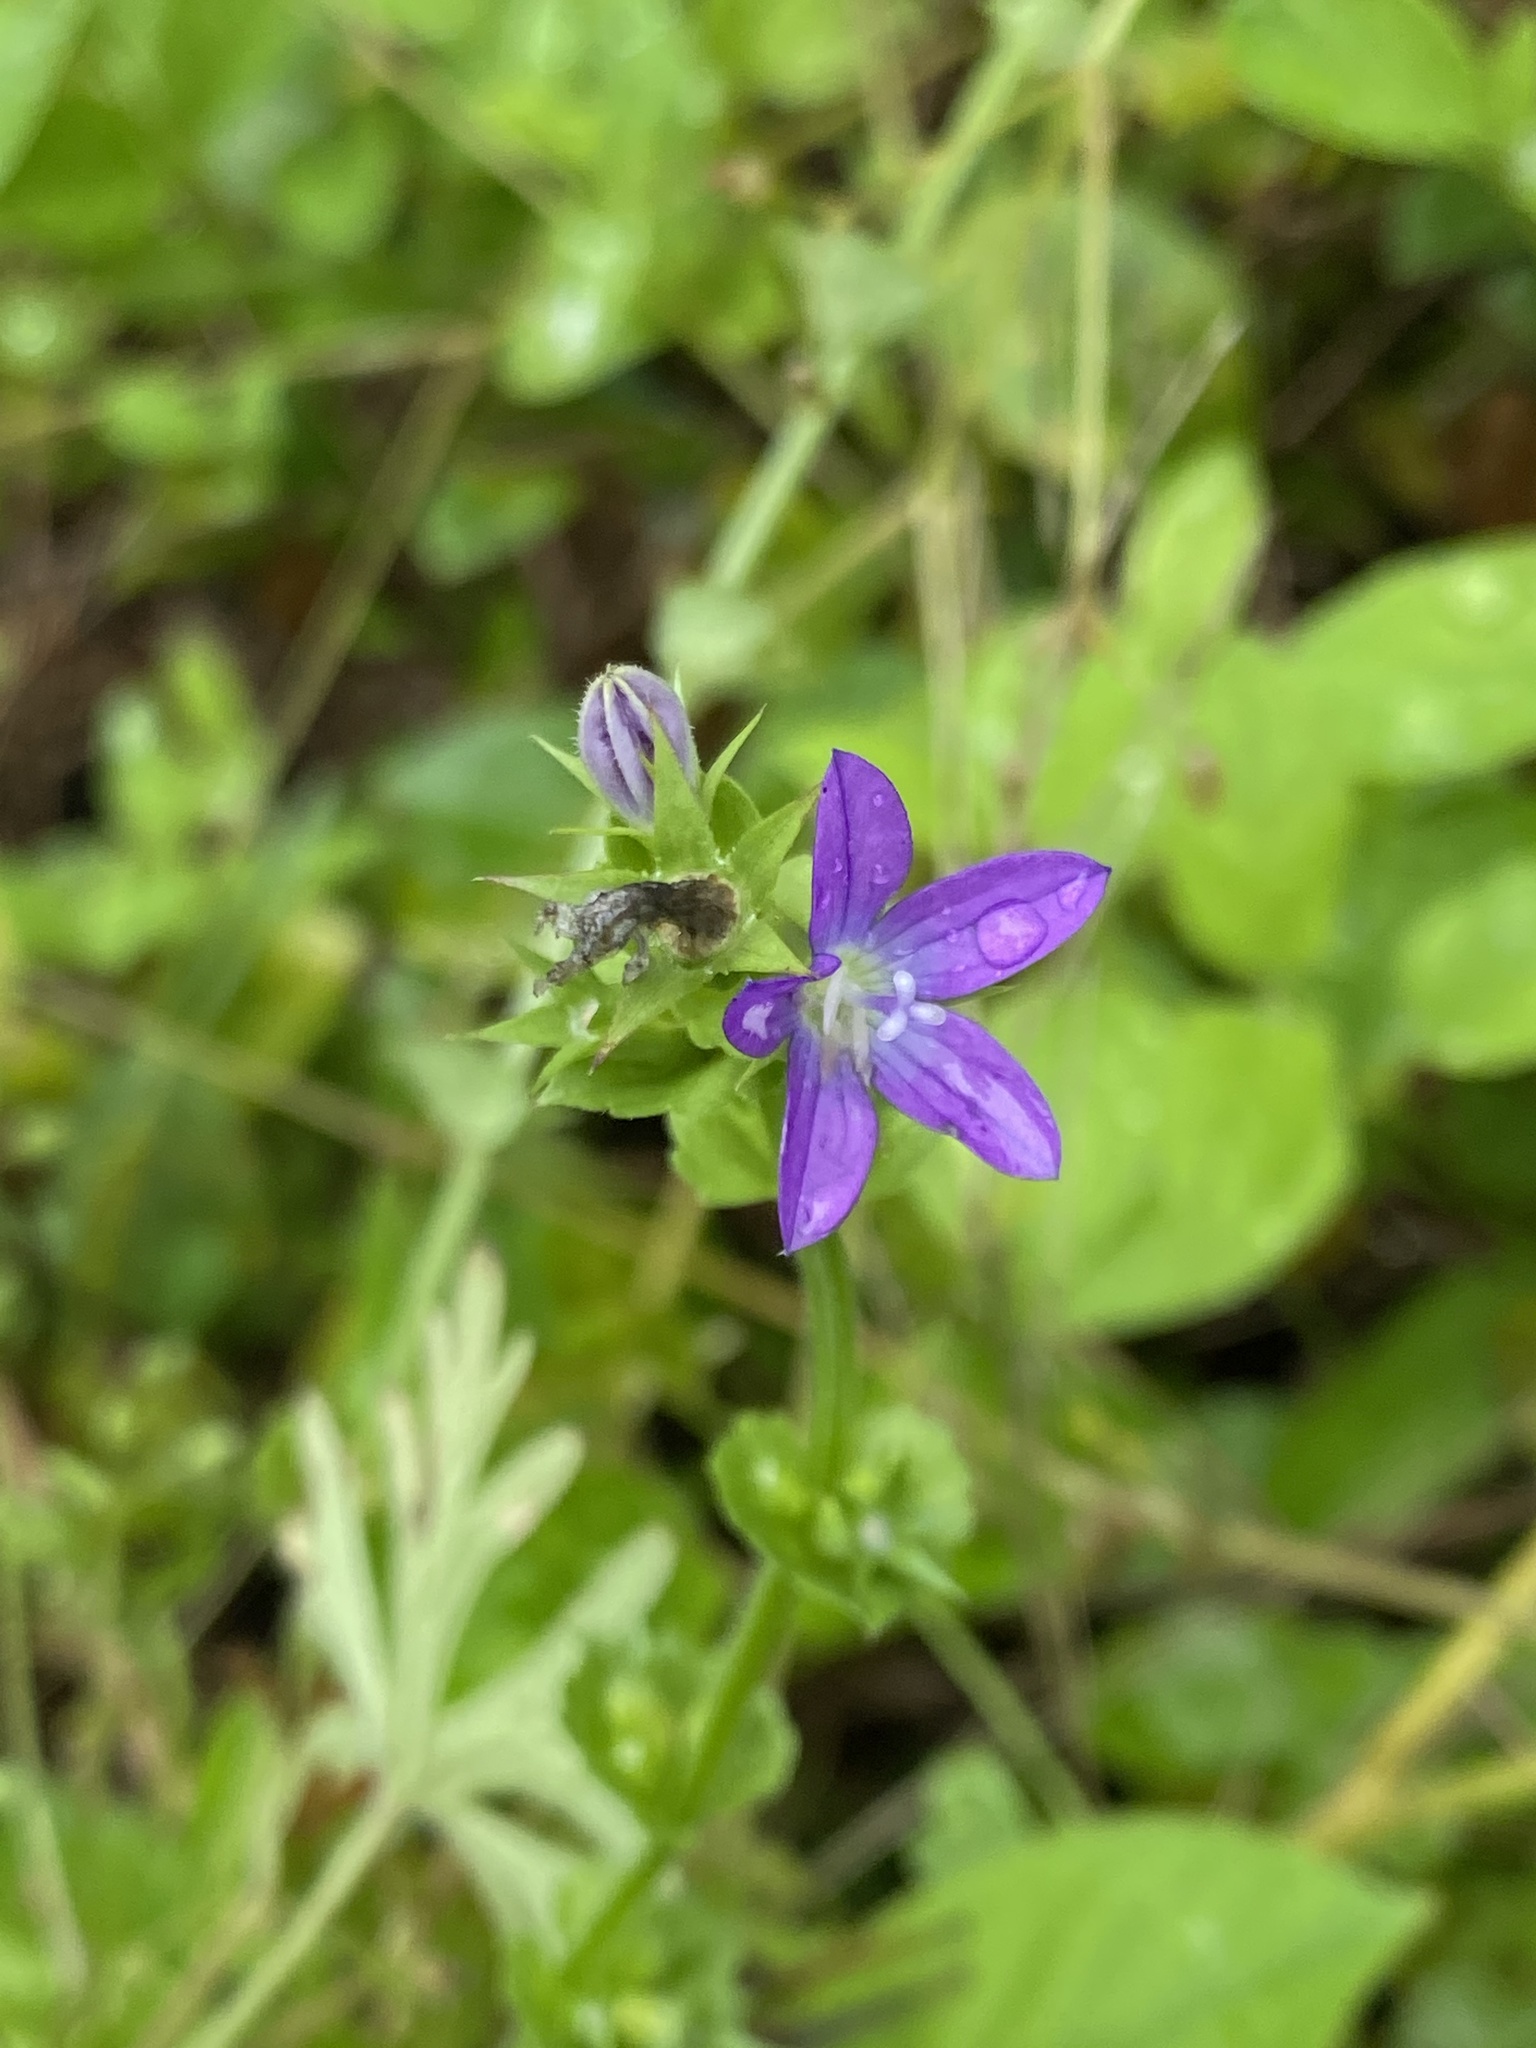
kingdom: Plantae
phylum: Tracheophyta
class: Magnoliopsida
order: Asterales
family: Campanulaceae
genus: Triodanis
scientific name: Triodanis perfoliata
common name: Clasping venus' looking-glass
